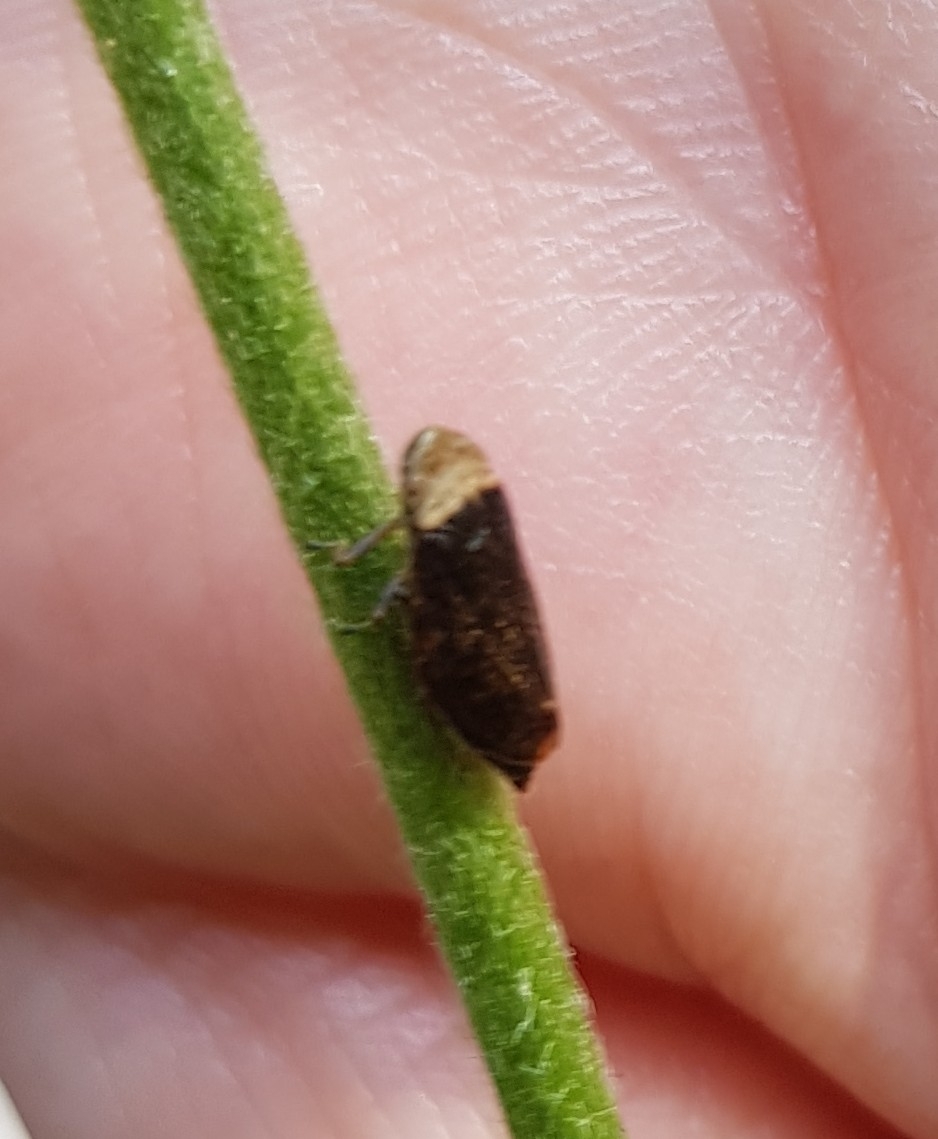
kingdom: Animalia
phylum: Arthropoda
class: Insecta
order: Hemiptera
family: Aphrophoridae
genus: Philaenus
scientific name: Philaenus spumarius
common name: Meadow spittlebug
